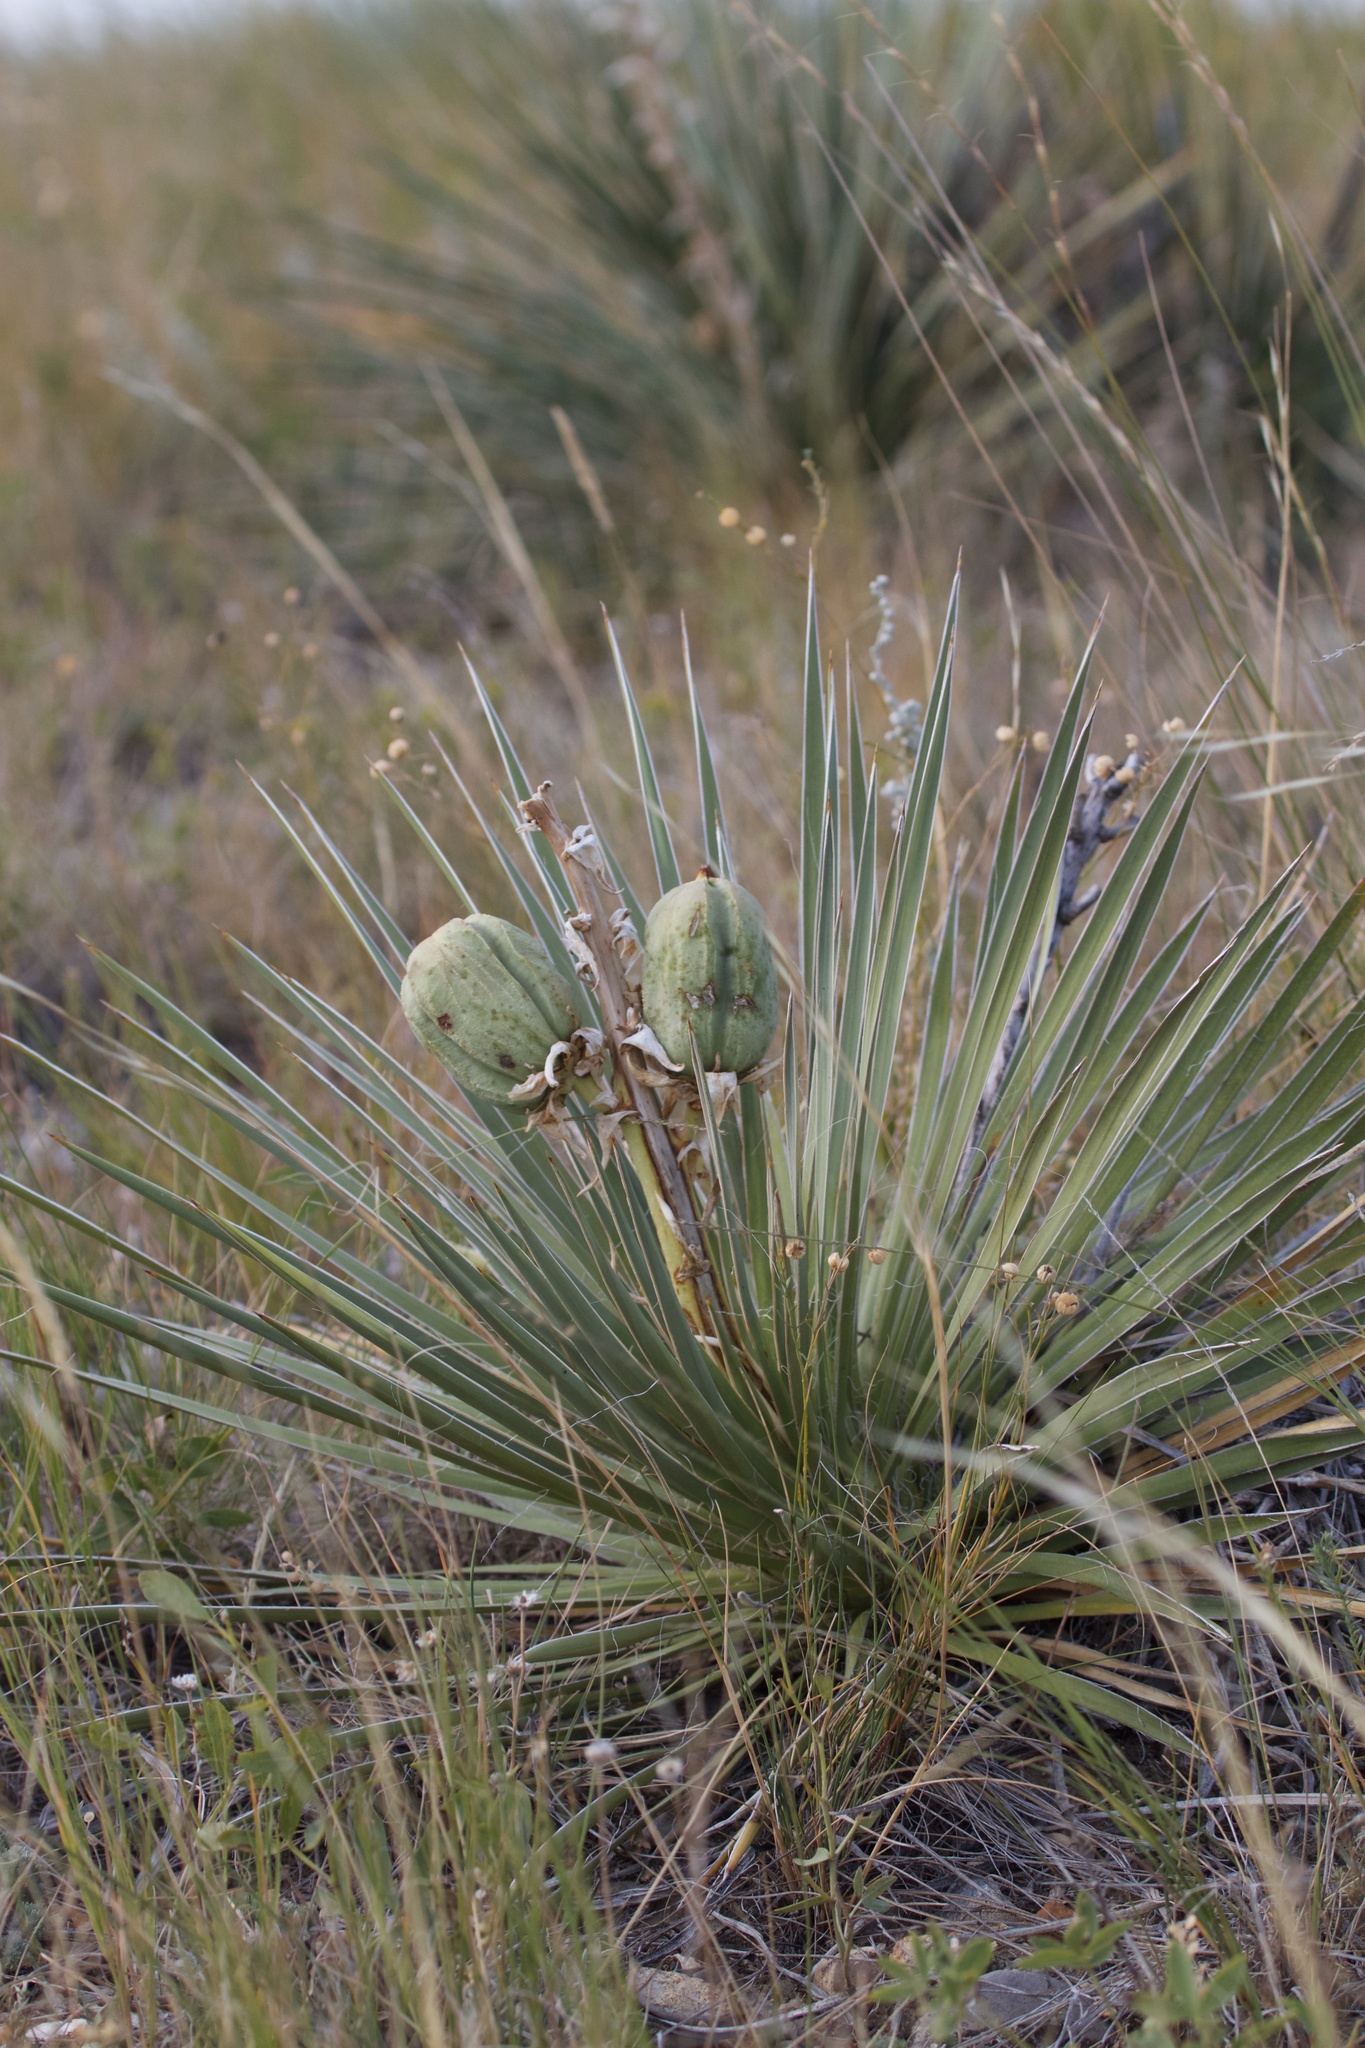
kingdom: Plantae
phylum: Tracheophyta
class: Liliopsida
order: Asparagales
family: Asparagaceae
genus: Yucca
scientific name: Yucca glauca
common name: Great plains yucca
